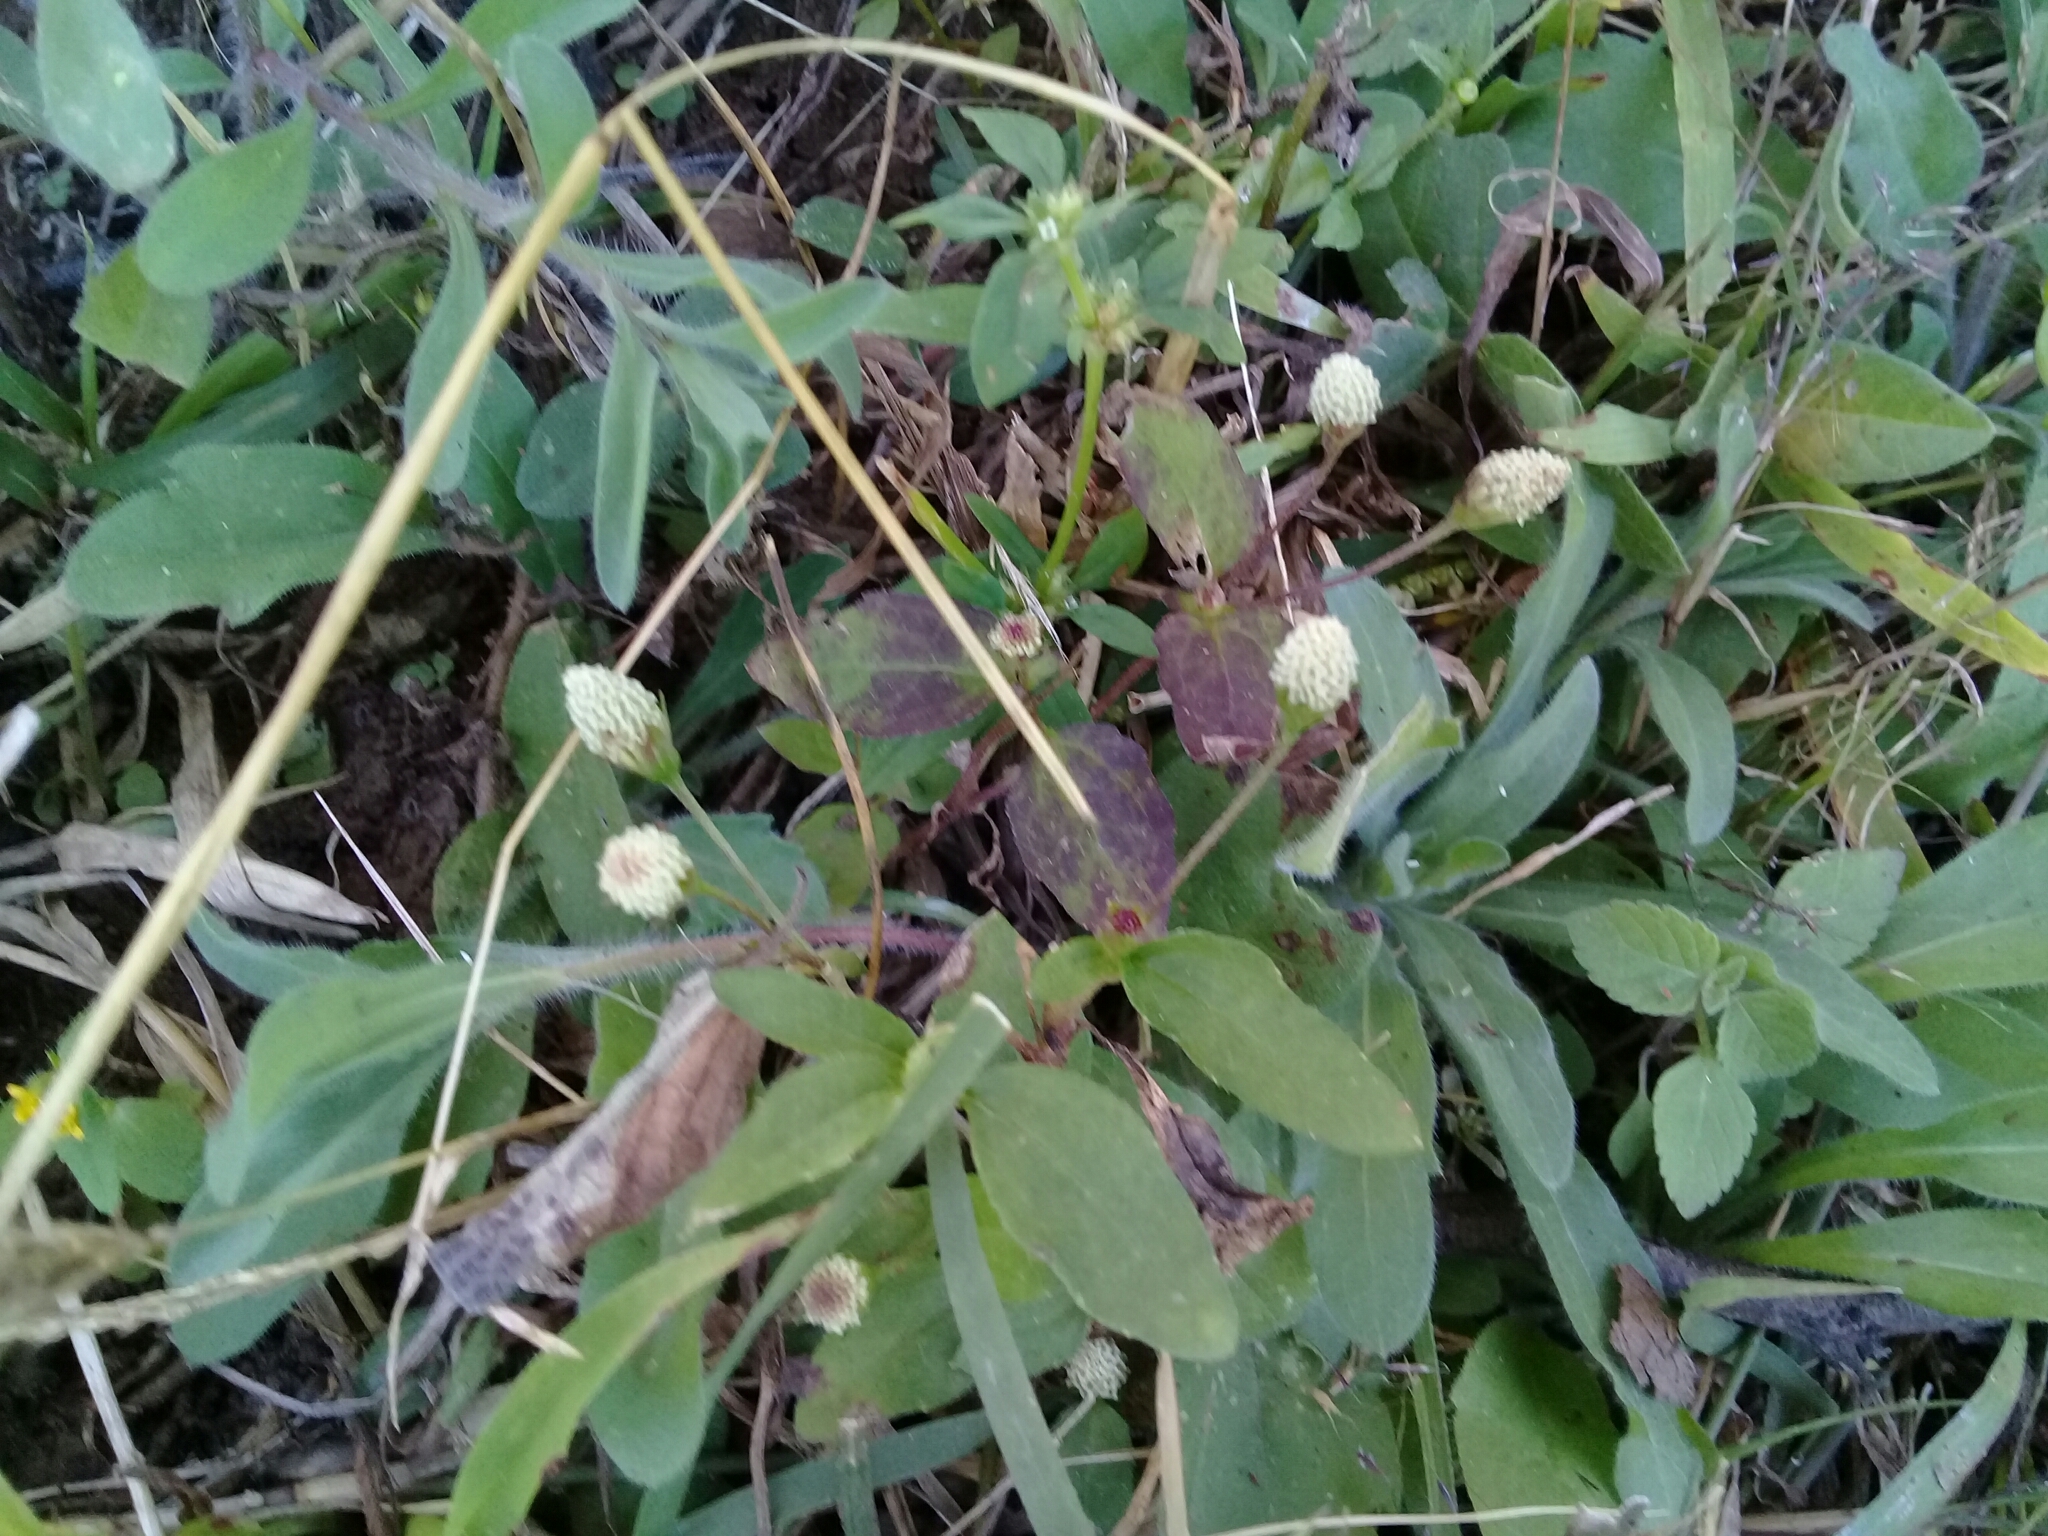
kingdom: Plantae
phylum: Tracheophyta
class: Magnoliopsida
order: Asterales
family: Asteraceae
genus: Acmella
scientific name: Acmella radicans
